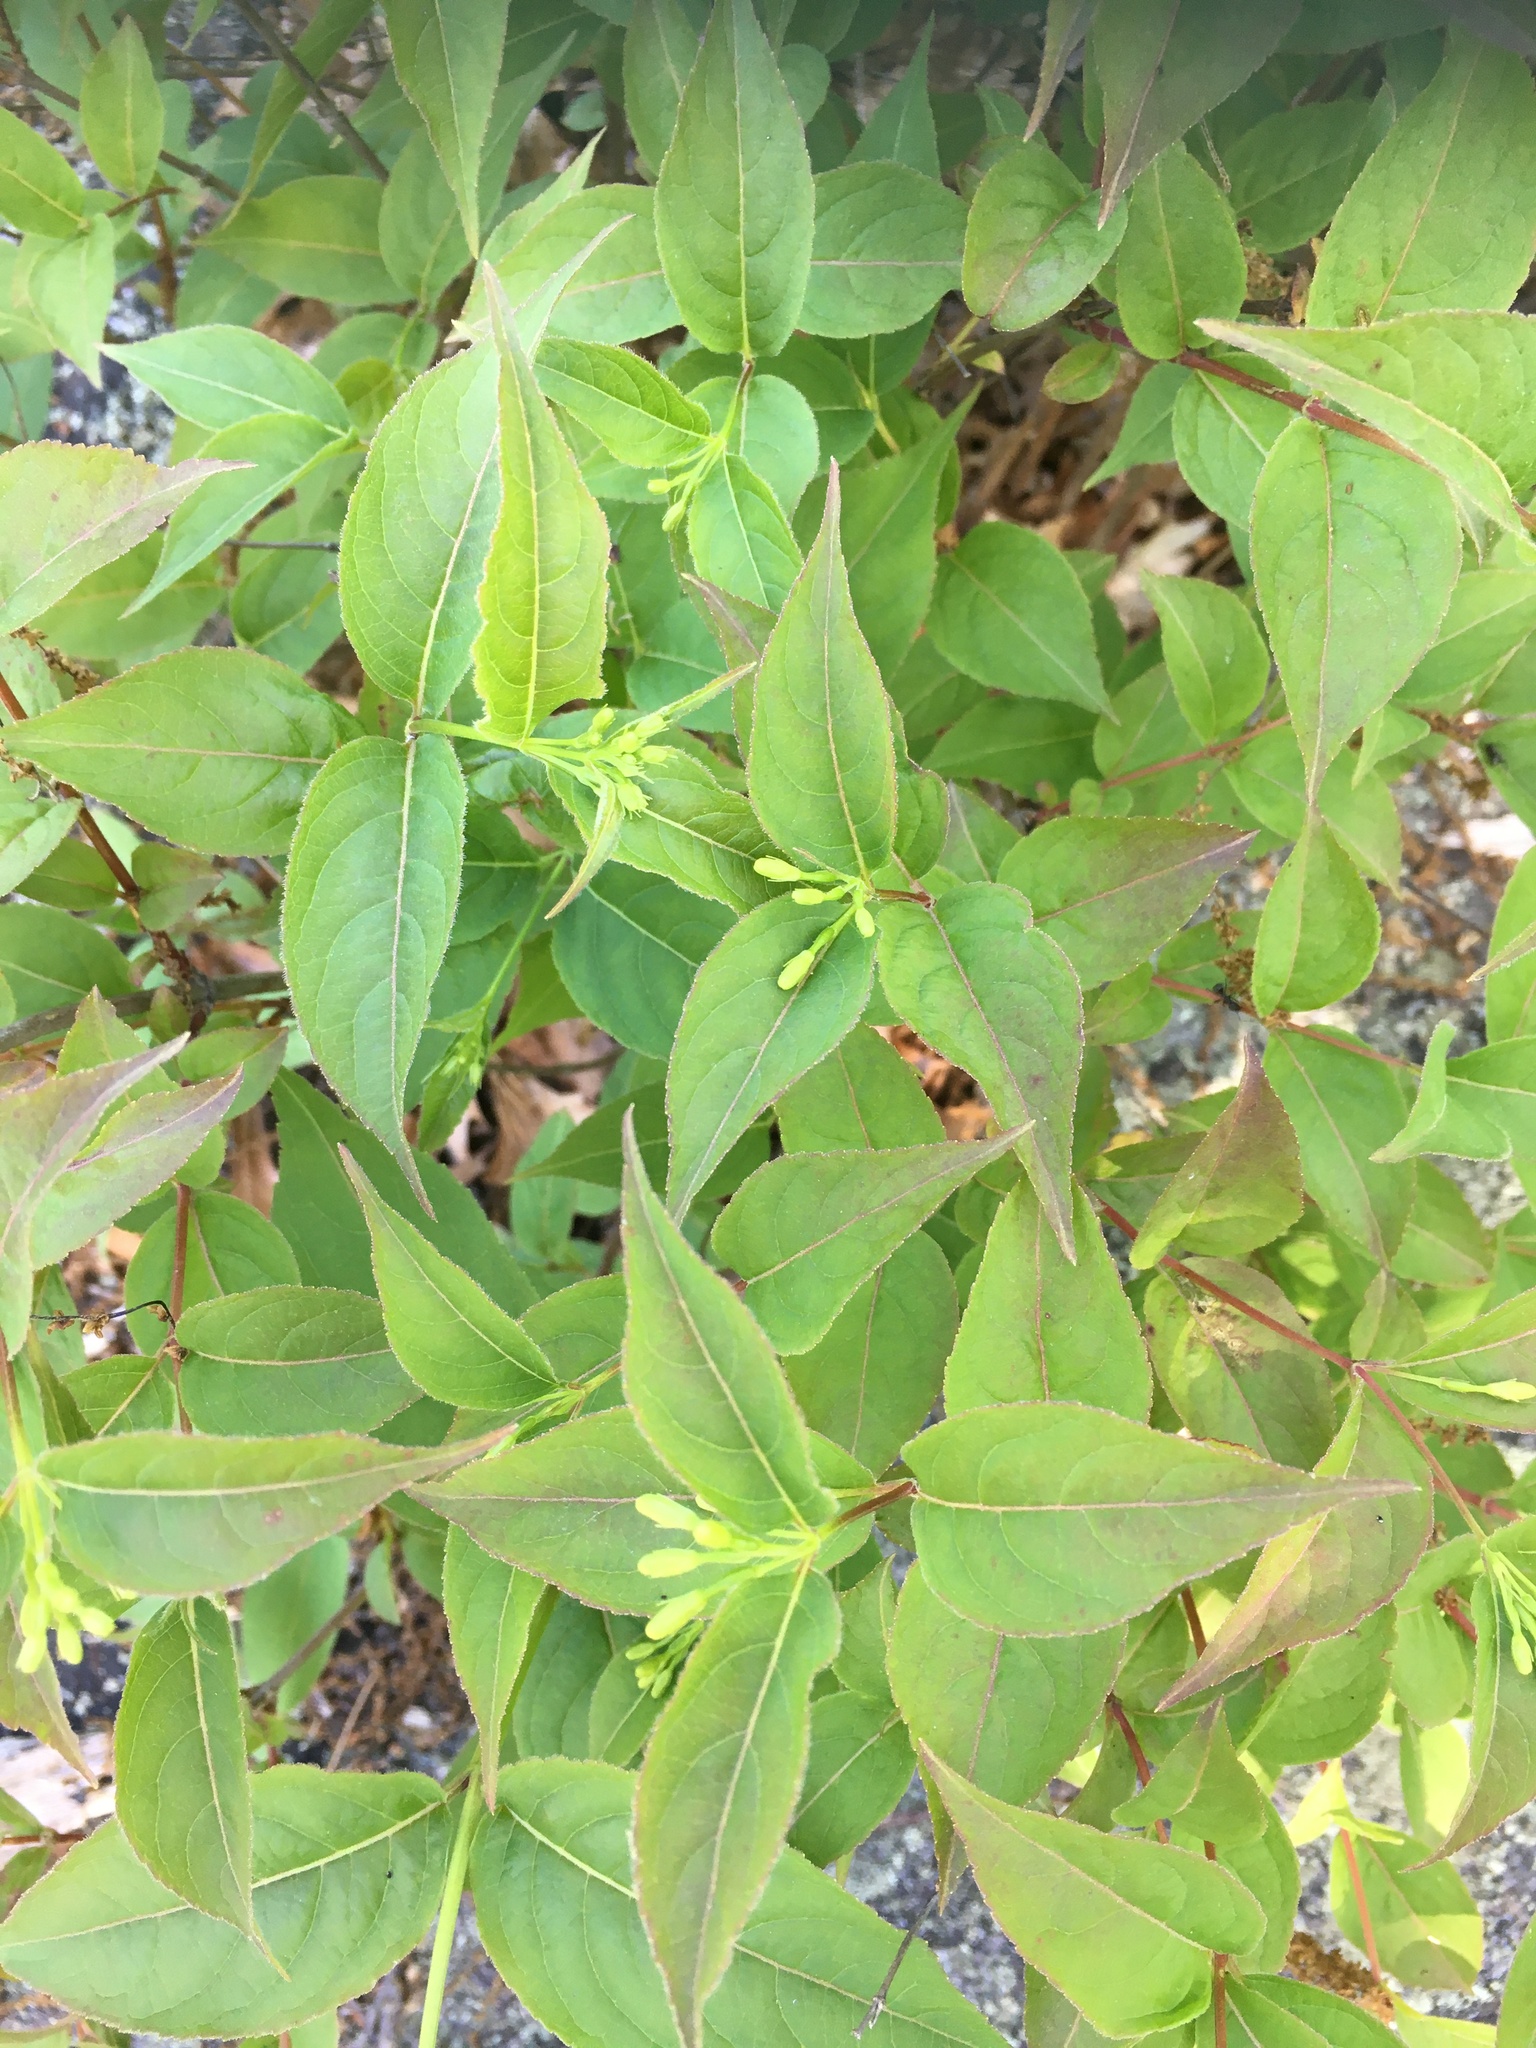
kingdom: Plantae
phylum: Tracheophyta
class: Magnoliopsida
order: Dipsacales
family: Caprifoliaceae
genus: Diervilla
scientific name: Diervilla lonicera
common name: Bush-honeysuckle
